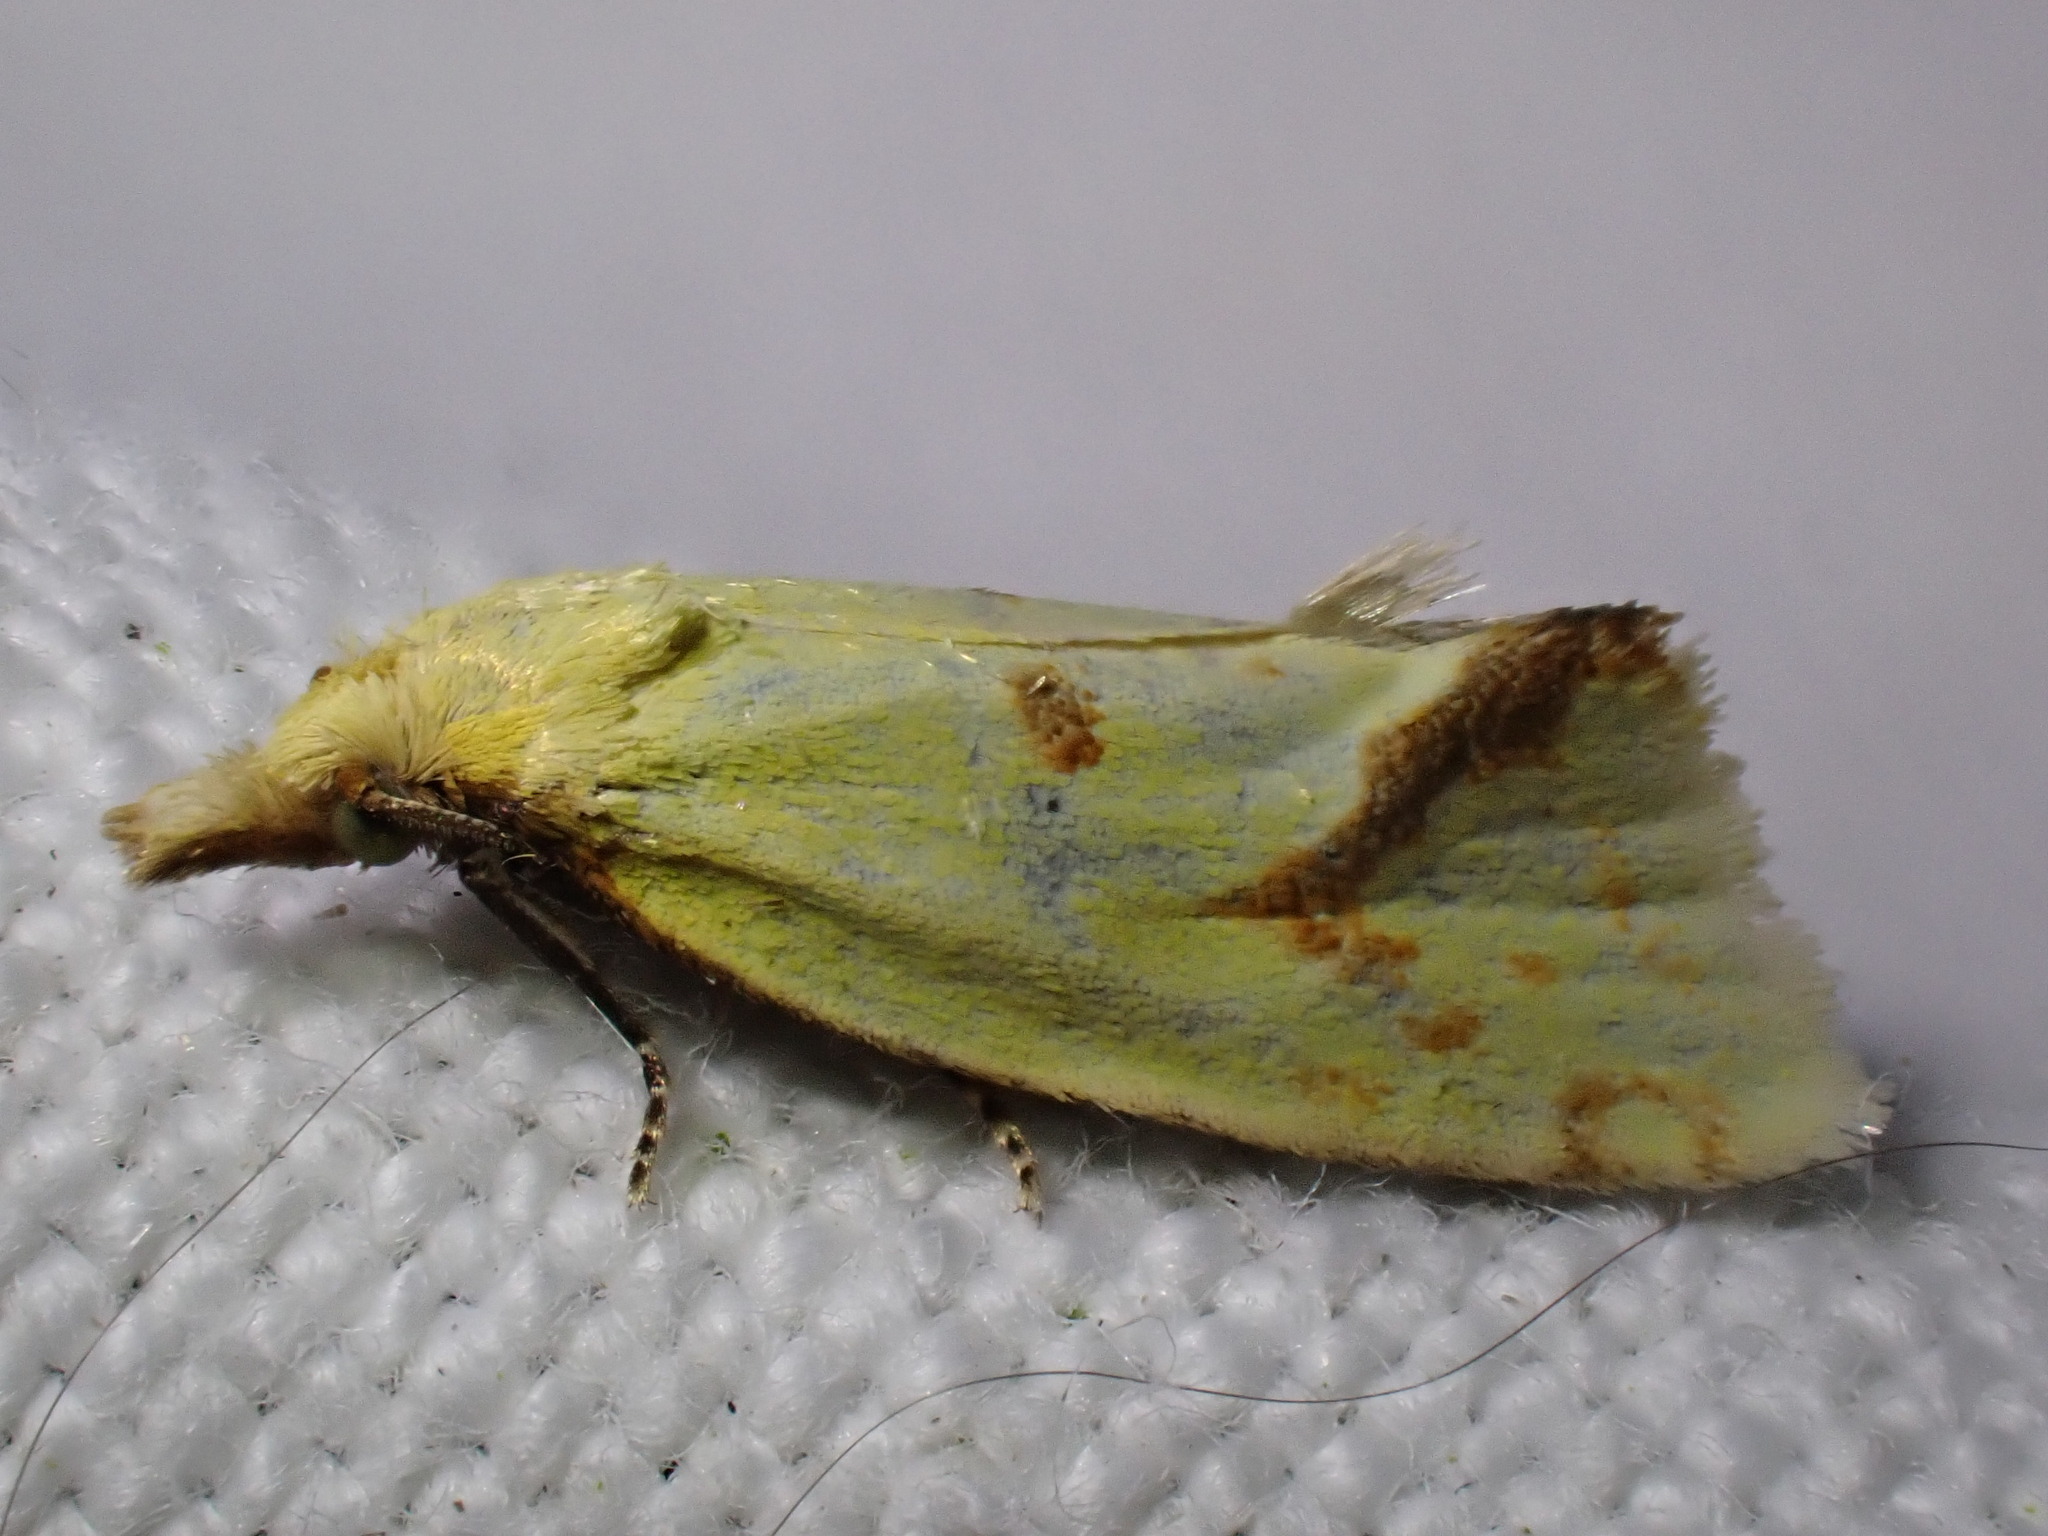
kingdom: Animalia
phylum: Arthropoda
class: Insecta
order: Lepidoptera
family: Tortricidae
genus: Agapeta
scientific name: Agapeta hamana
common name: Common yellow conch
